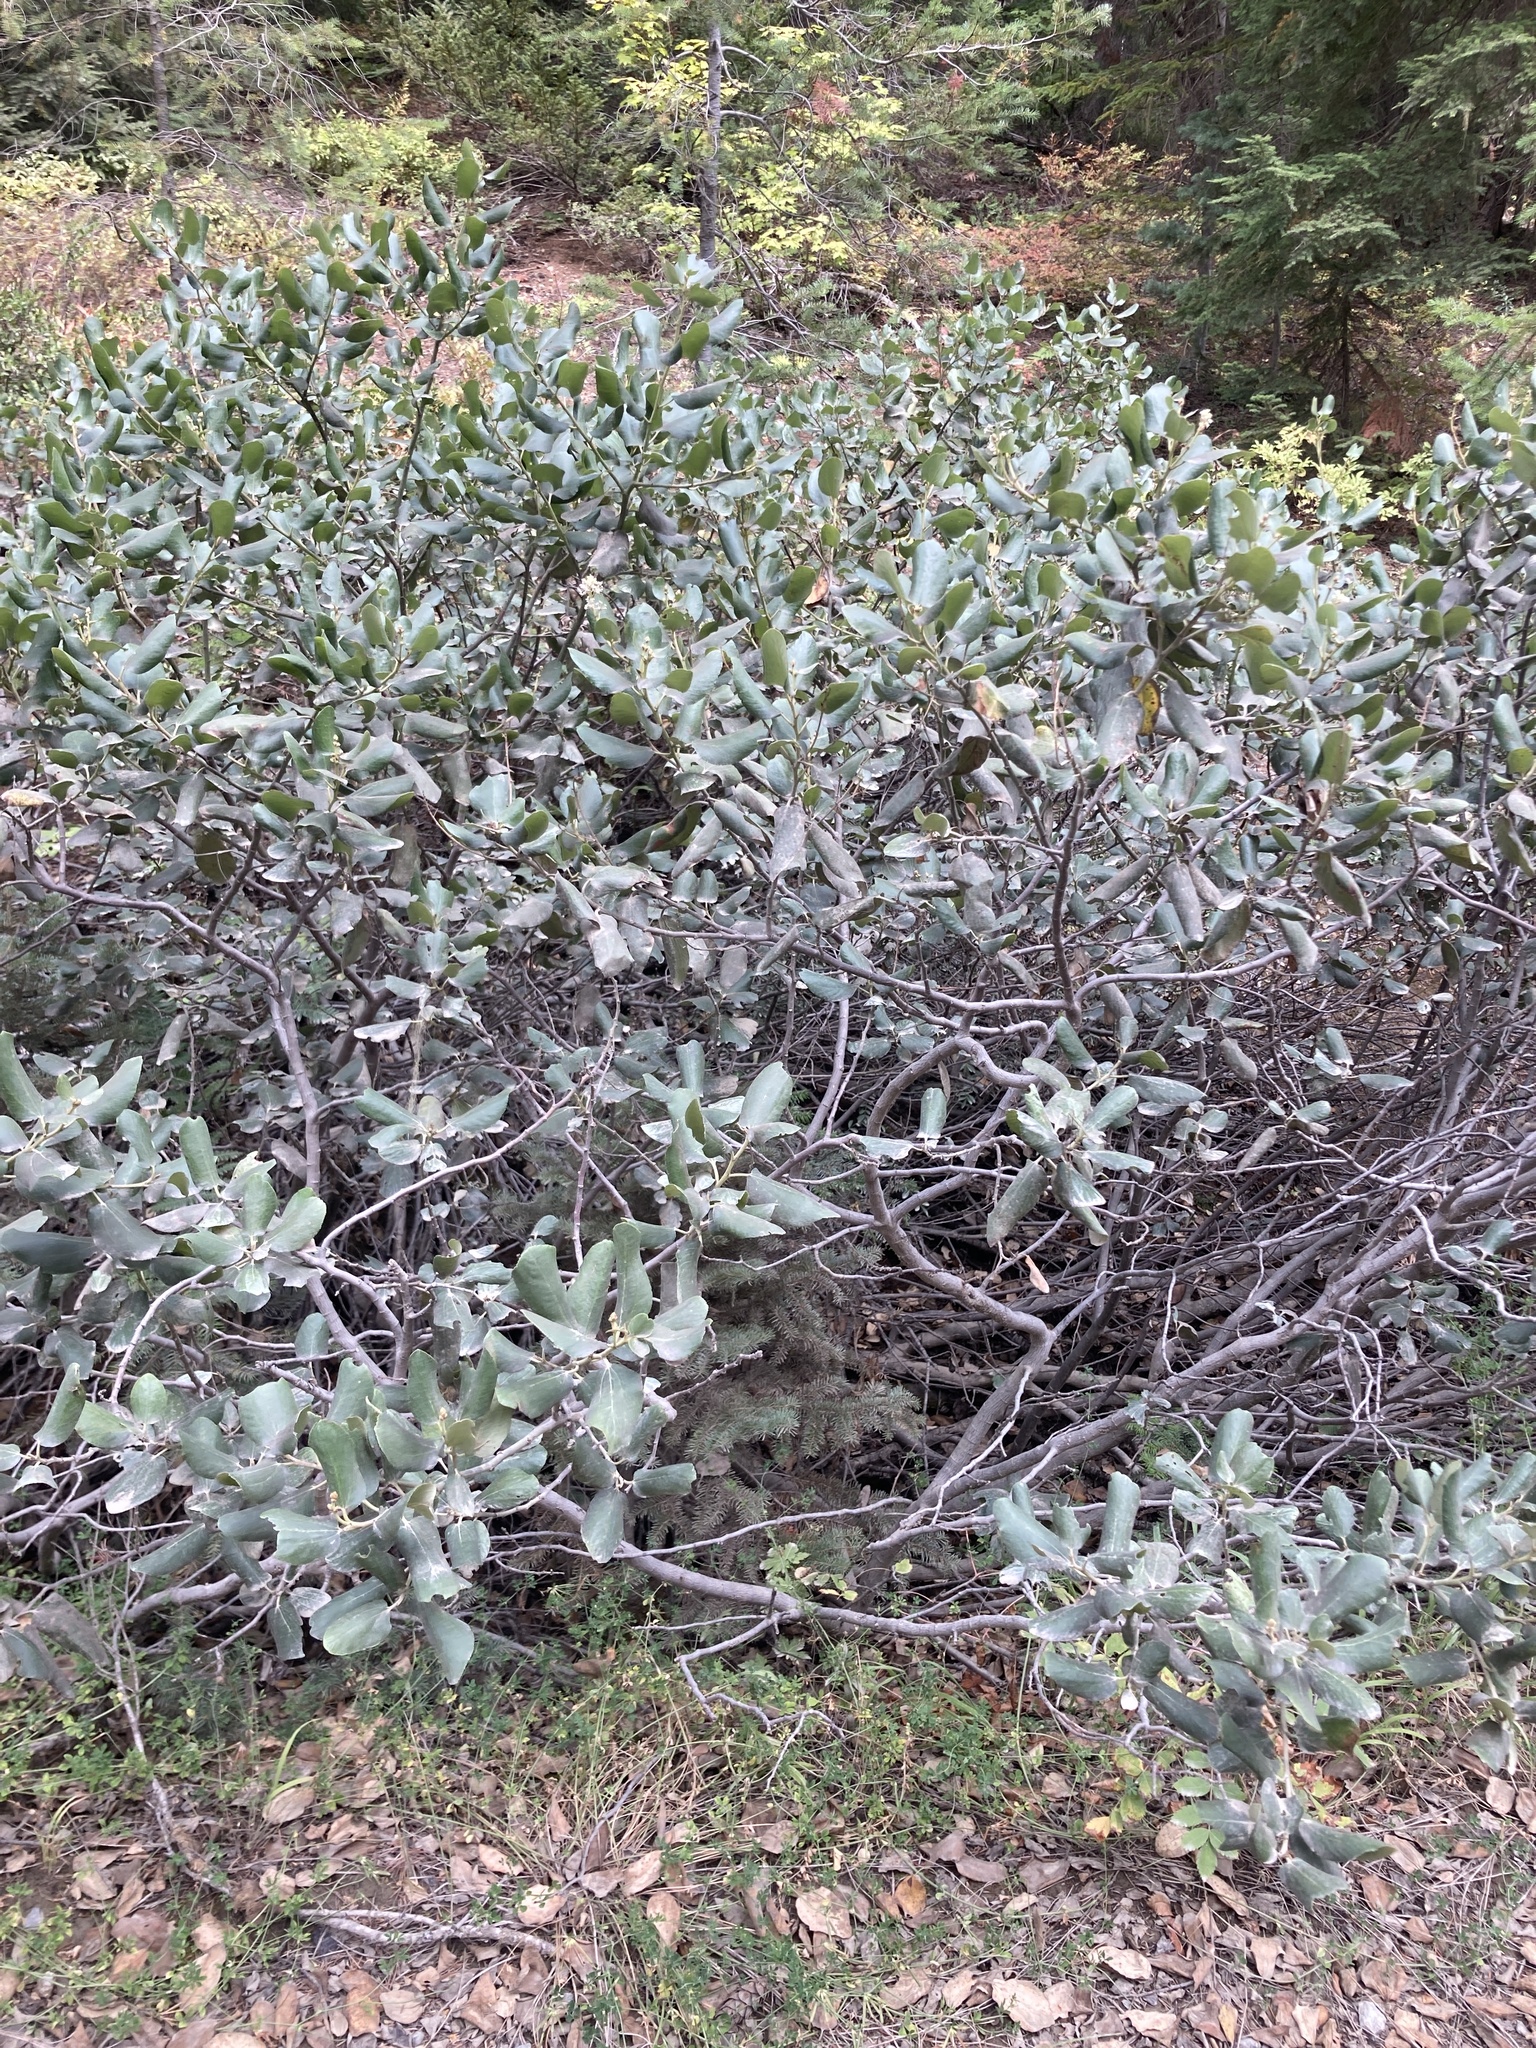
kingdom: Plantae
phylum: Tracheophyta
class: Magnoliopsida
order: Rosales
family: Rhamnaceae
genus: Ceanothus
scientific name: Ceanothus velutinus
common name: Snowbrush
